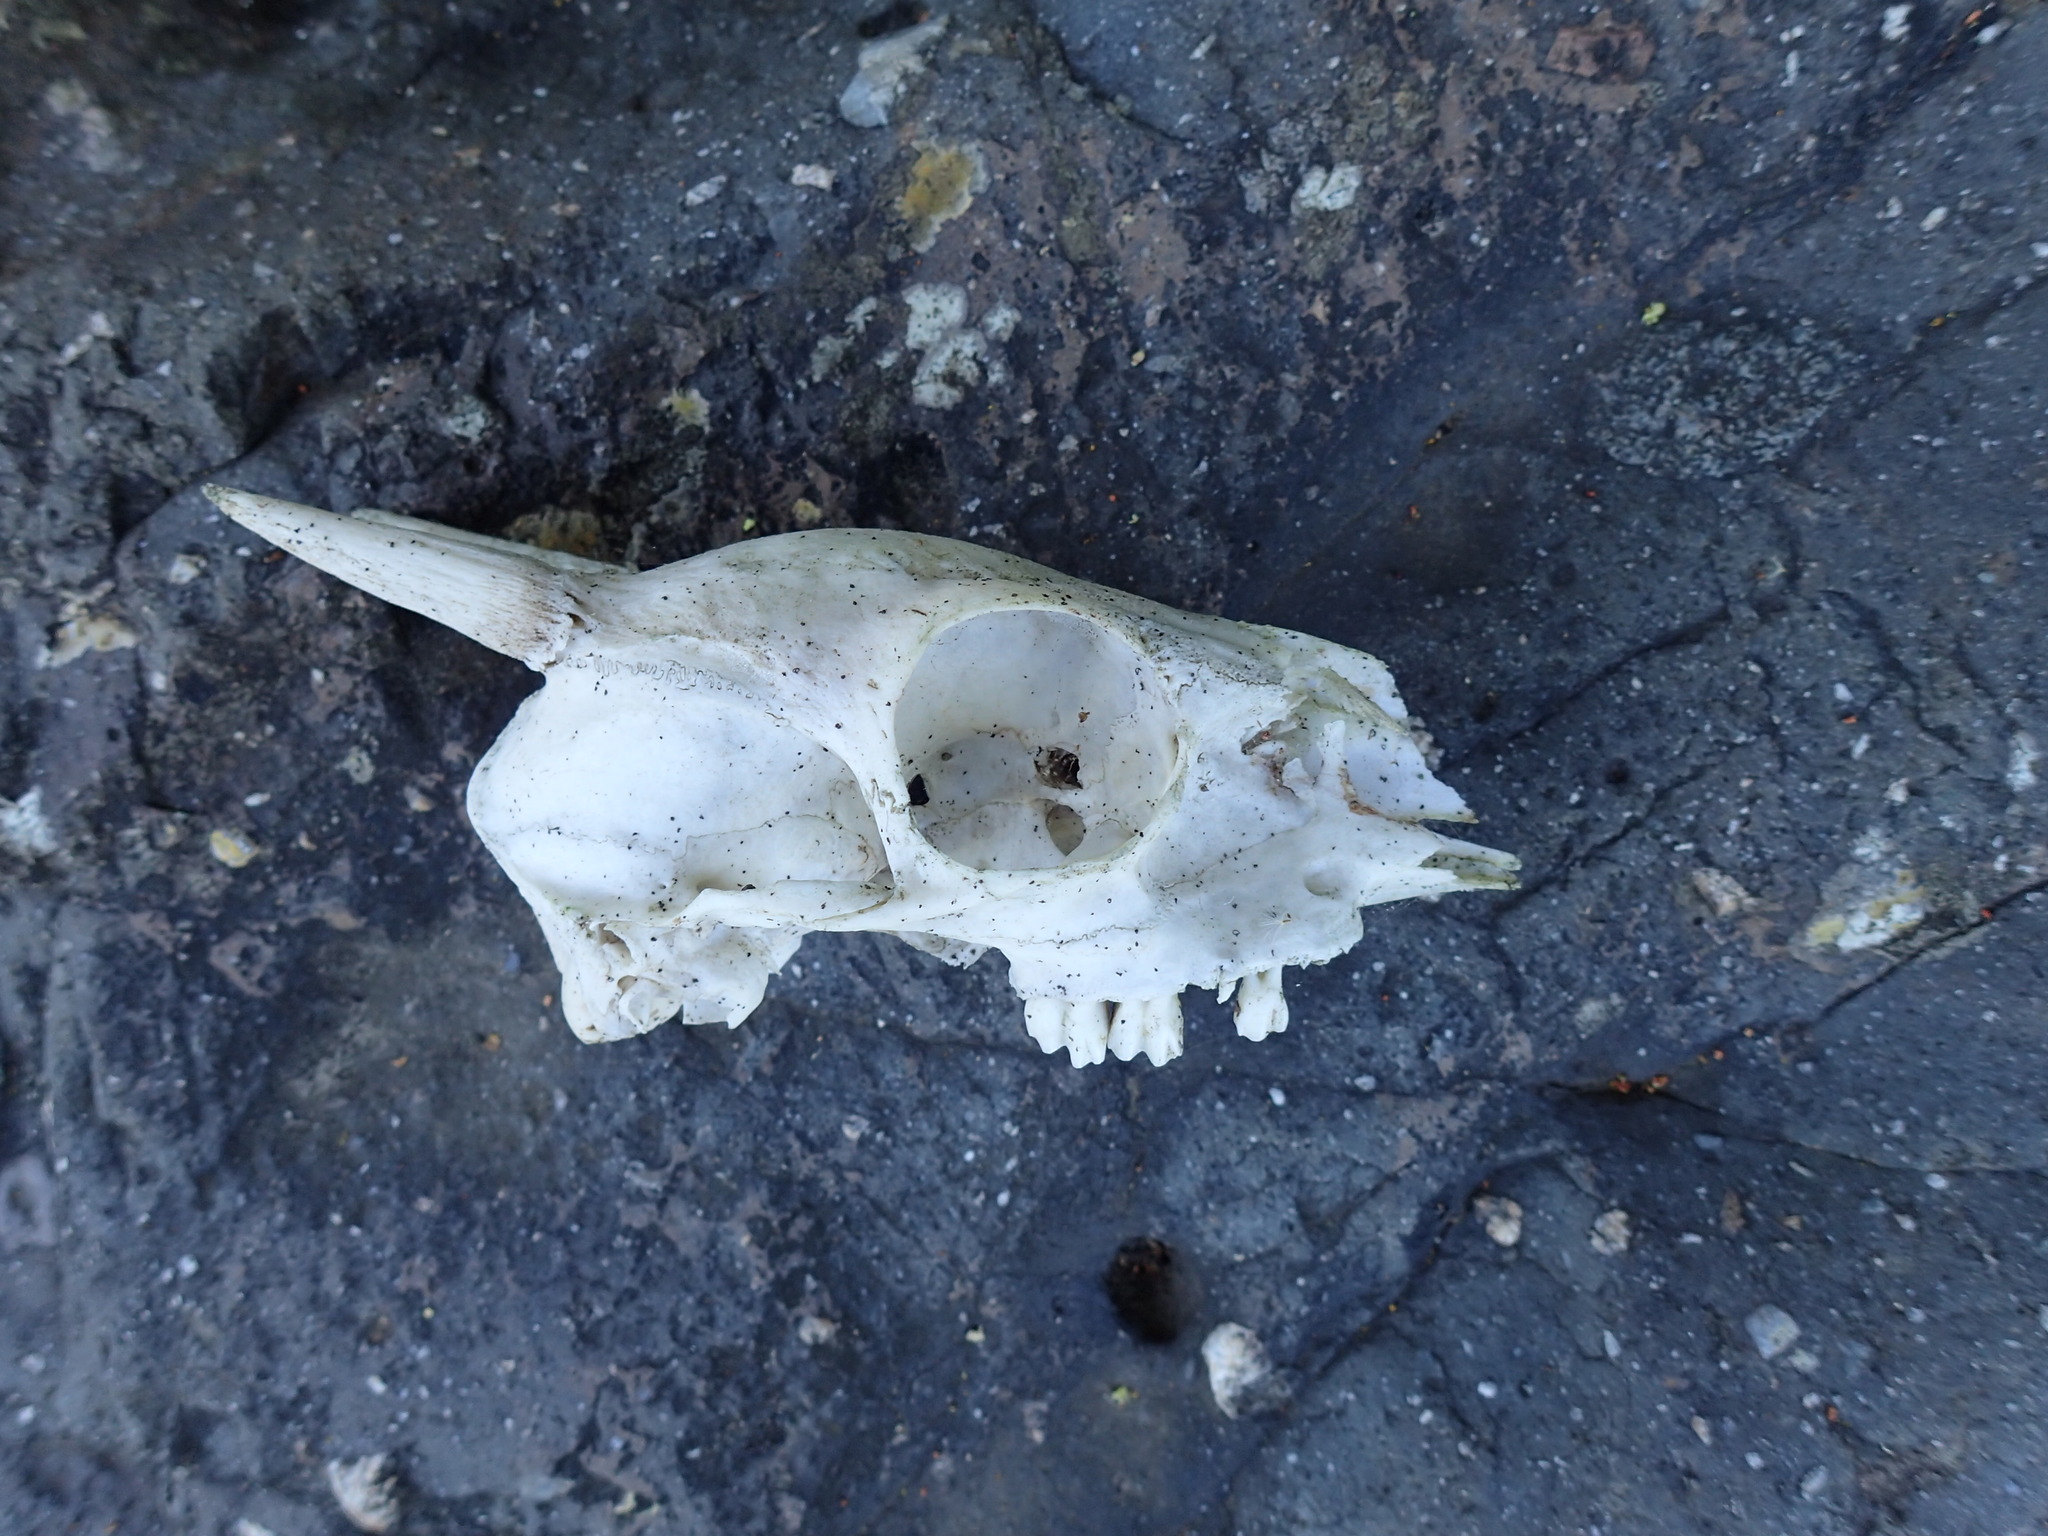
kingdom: Animalia
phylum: Chordata
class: Mammalia
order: Artiodactyla
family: Bovidae
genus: Philantomba
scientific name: Philantomba monticola
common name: Blue duiker
